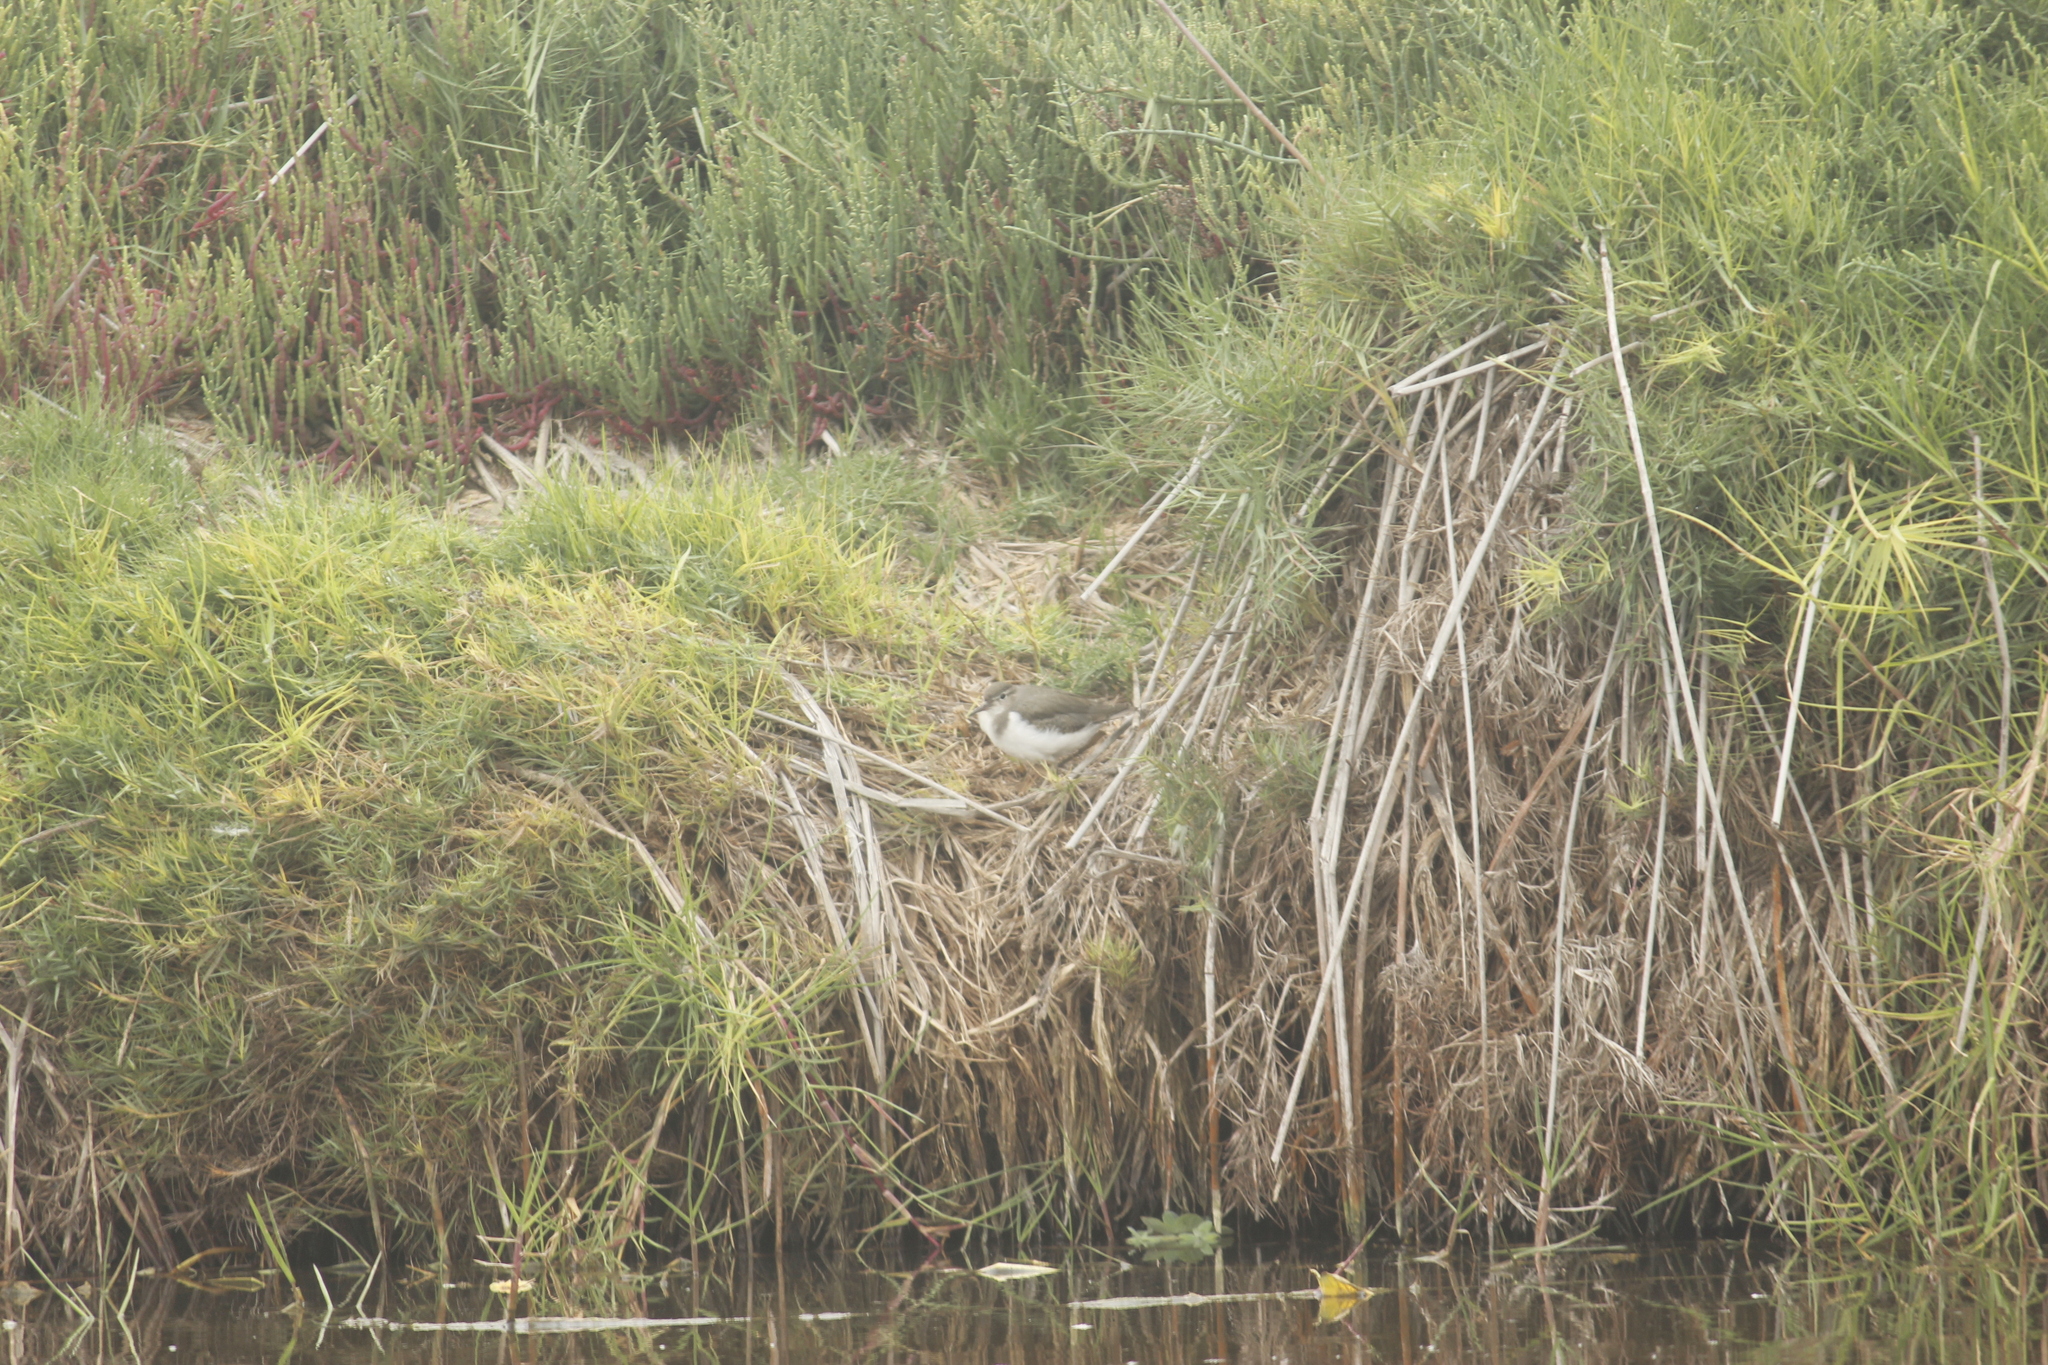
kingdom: Animalia
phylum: Chordata
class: Aves
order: Charadriiformes
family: Scolopacidae
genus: Actitis
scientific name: Actitis macularius
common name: Spotted sandpiper
